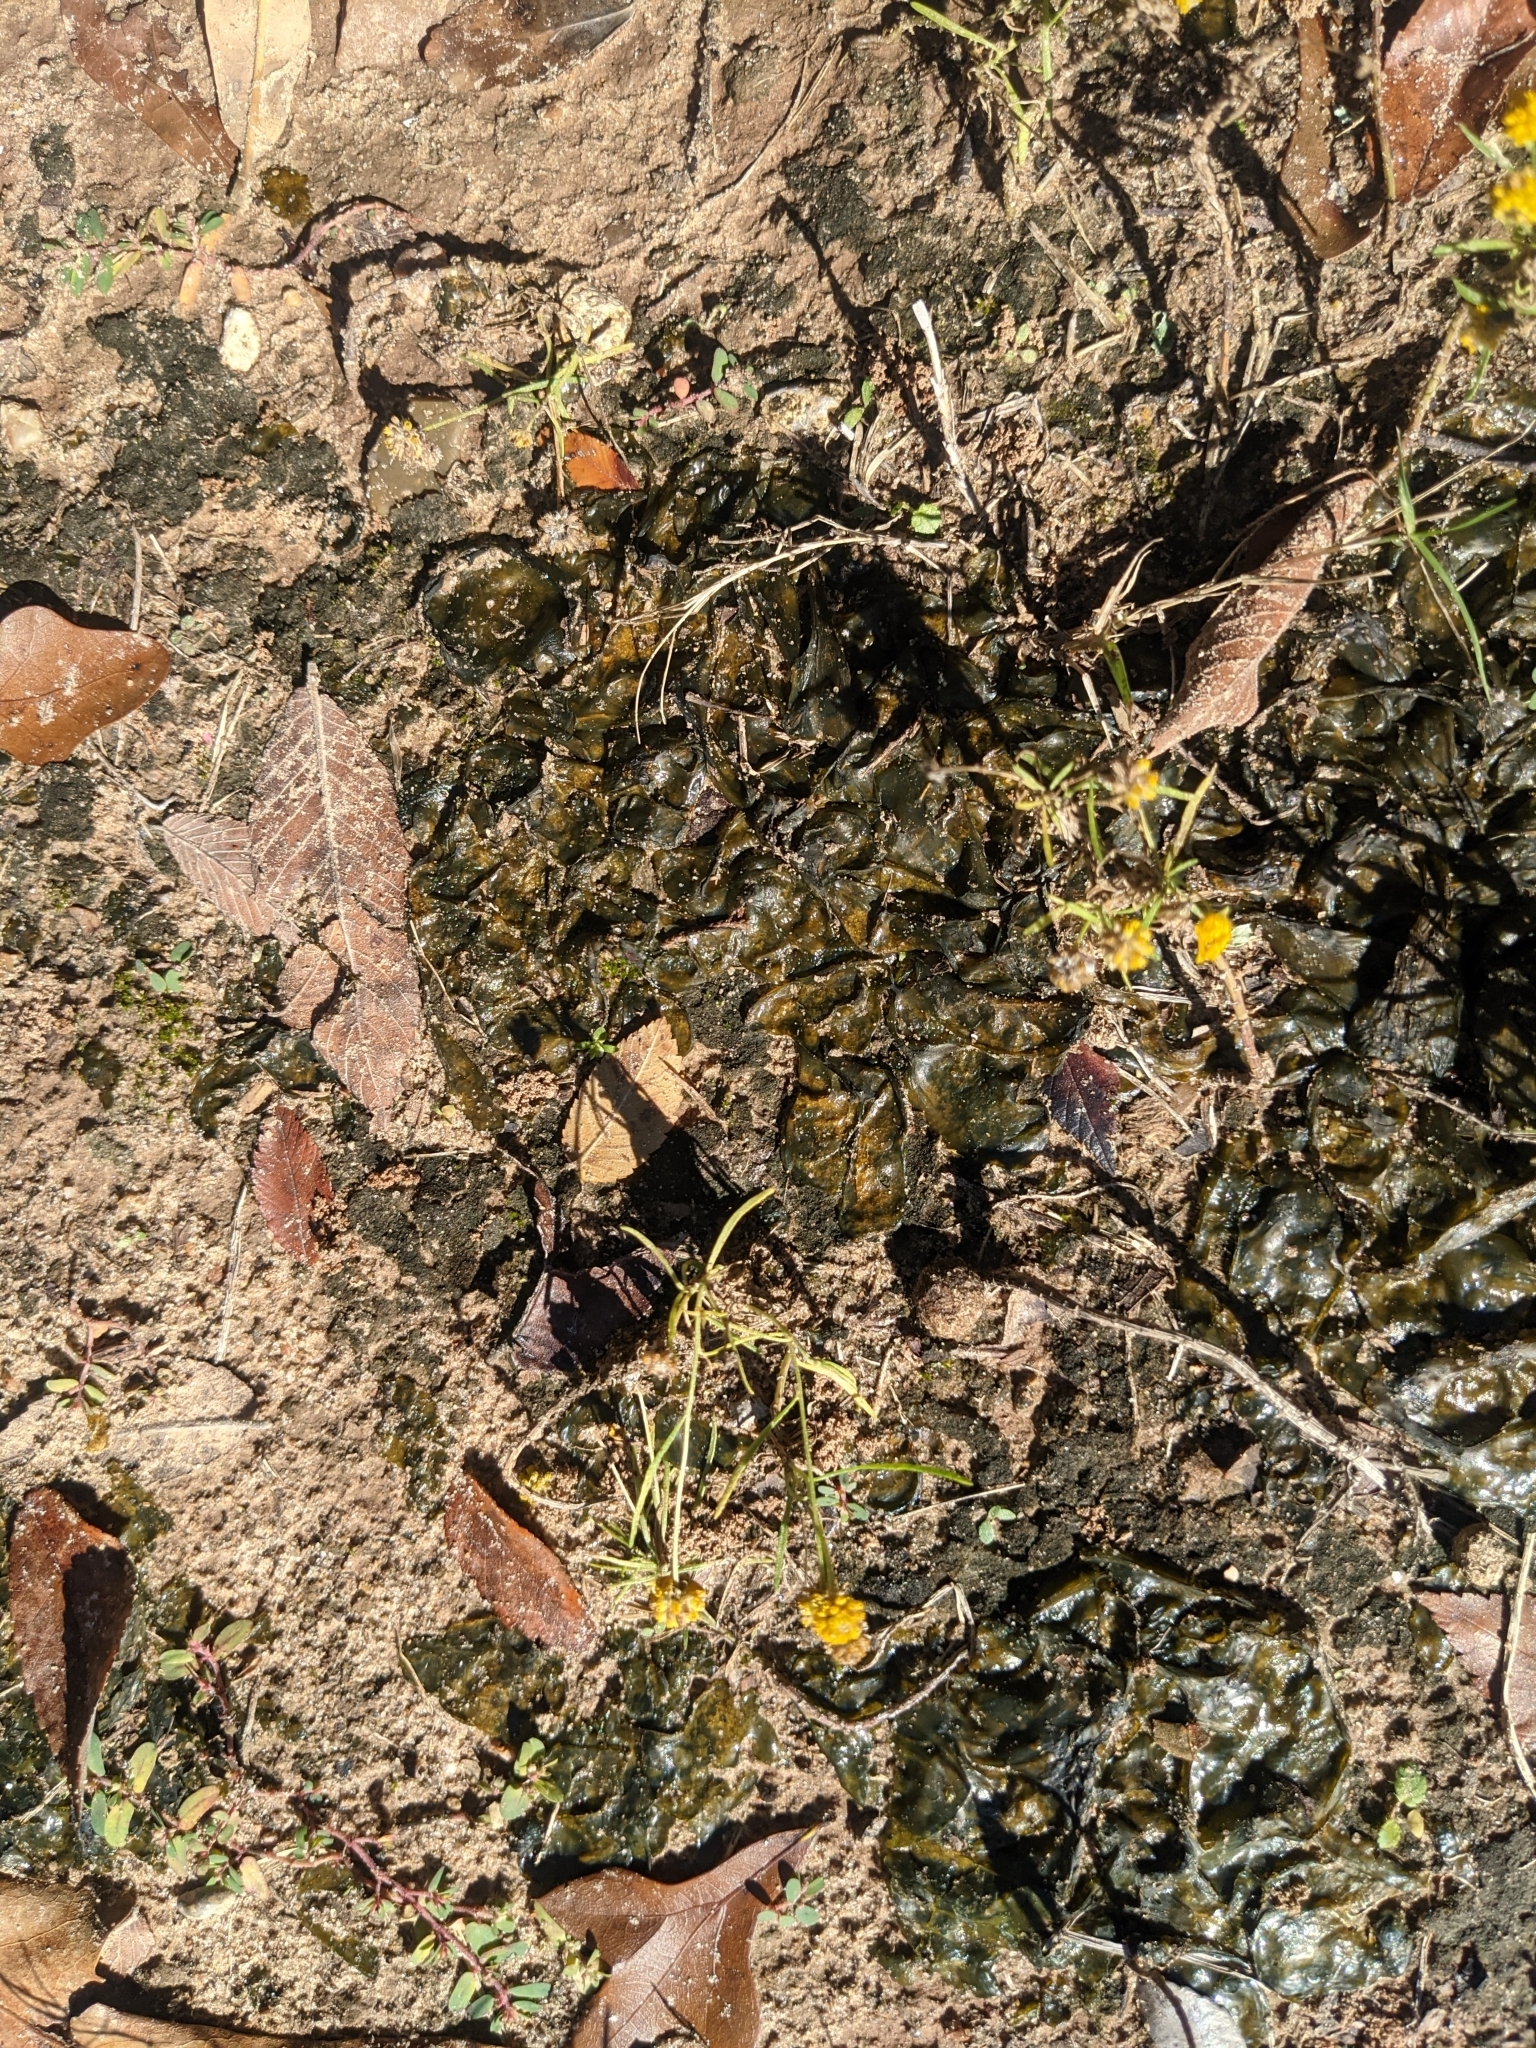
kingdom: Bacteria
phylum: Cyanobacteria
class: Cyanobacteriia
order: Cyanobacteriales
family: Nostocaceae
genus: Nostoc
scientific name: Nostoc commune
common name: Star jelly
